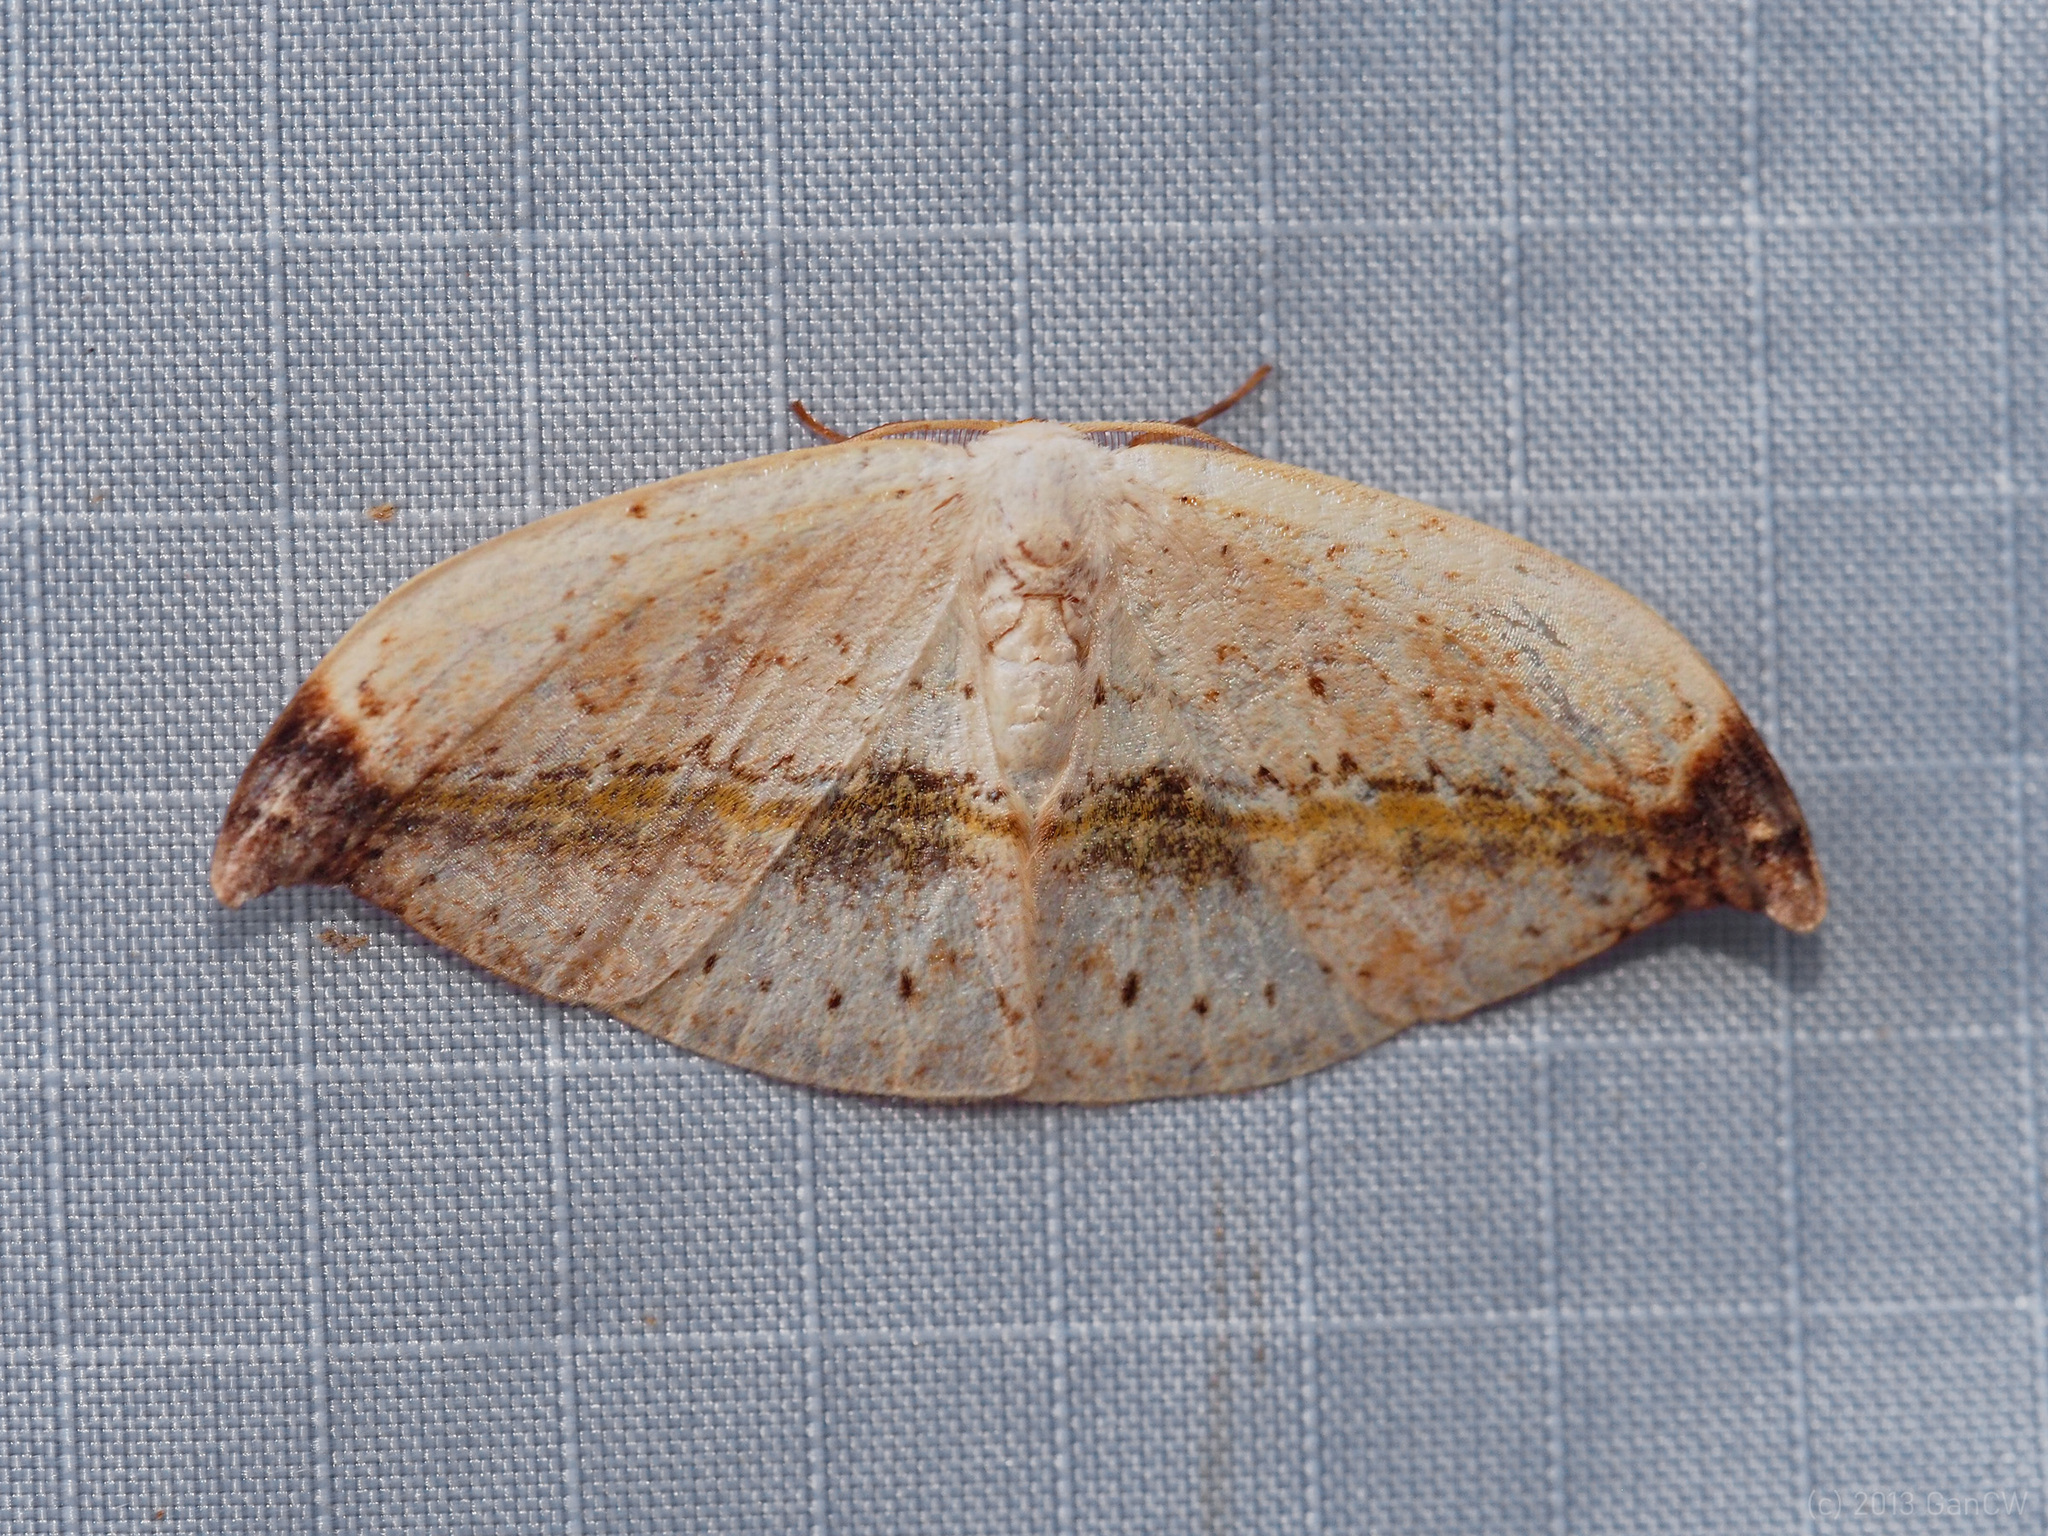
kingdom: Animalia
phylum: Arthropoda
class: Insecta
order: Lepidoptera
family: Drepanidae
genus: Callidrepana
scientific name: Callidrepana albiceris
